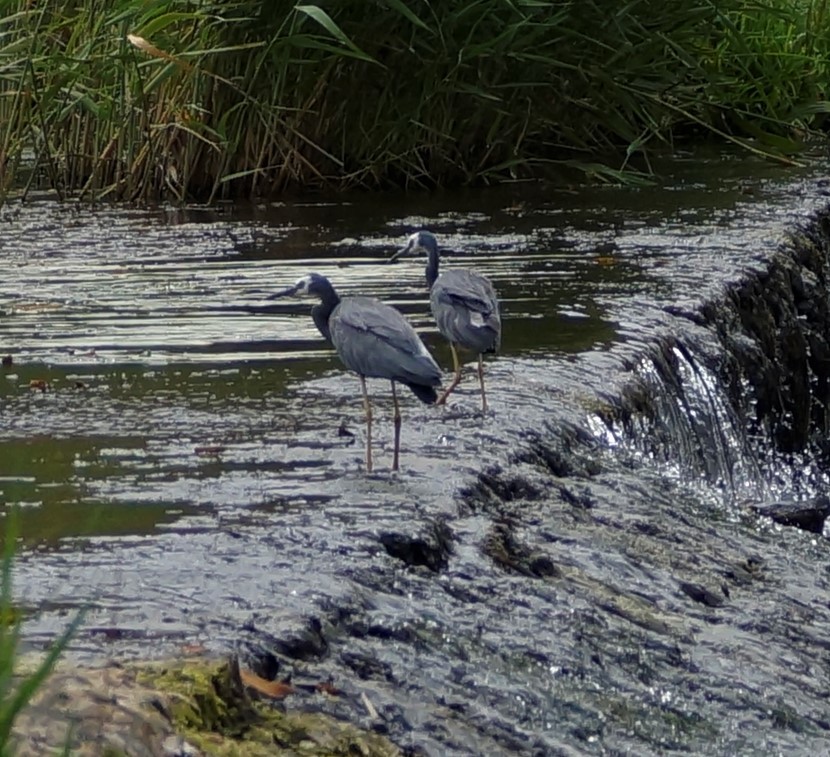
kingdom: Animalia
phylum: Chordata
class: Aves
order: Pelecaniformes
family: Ardeidae
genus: Egretta
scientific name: Egretta novaehollandiae
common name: White-faced heron
